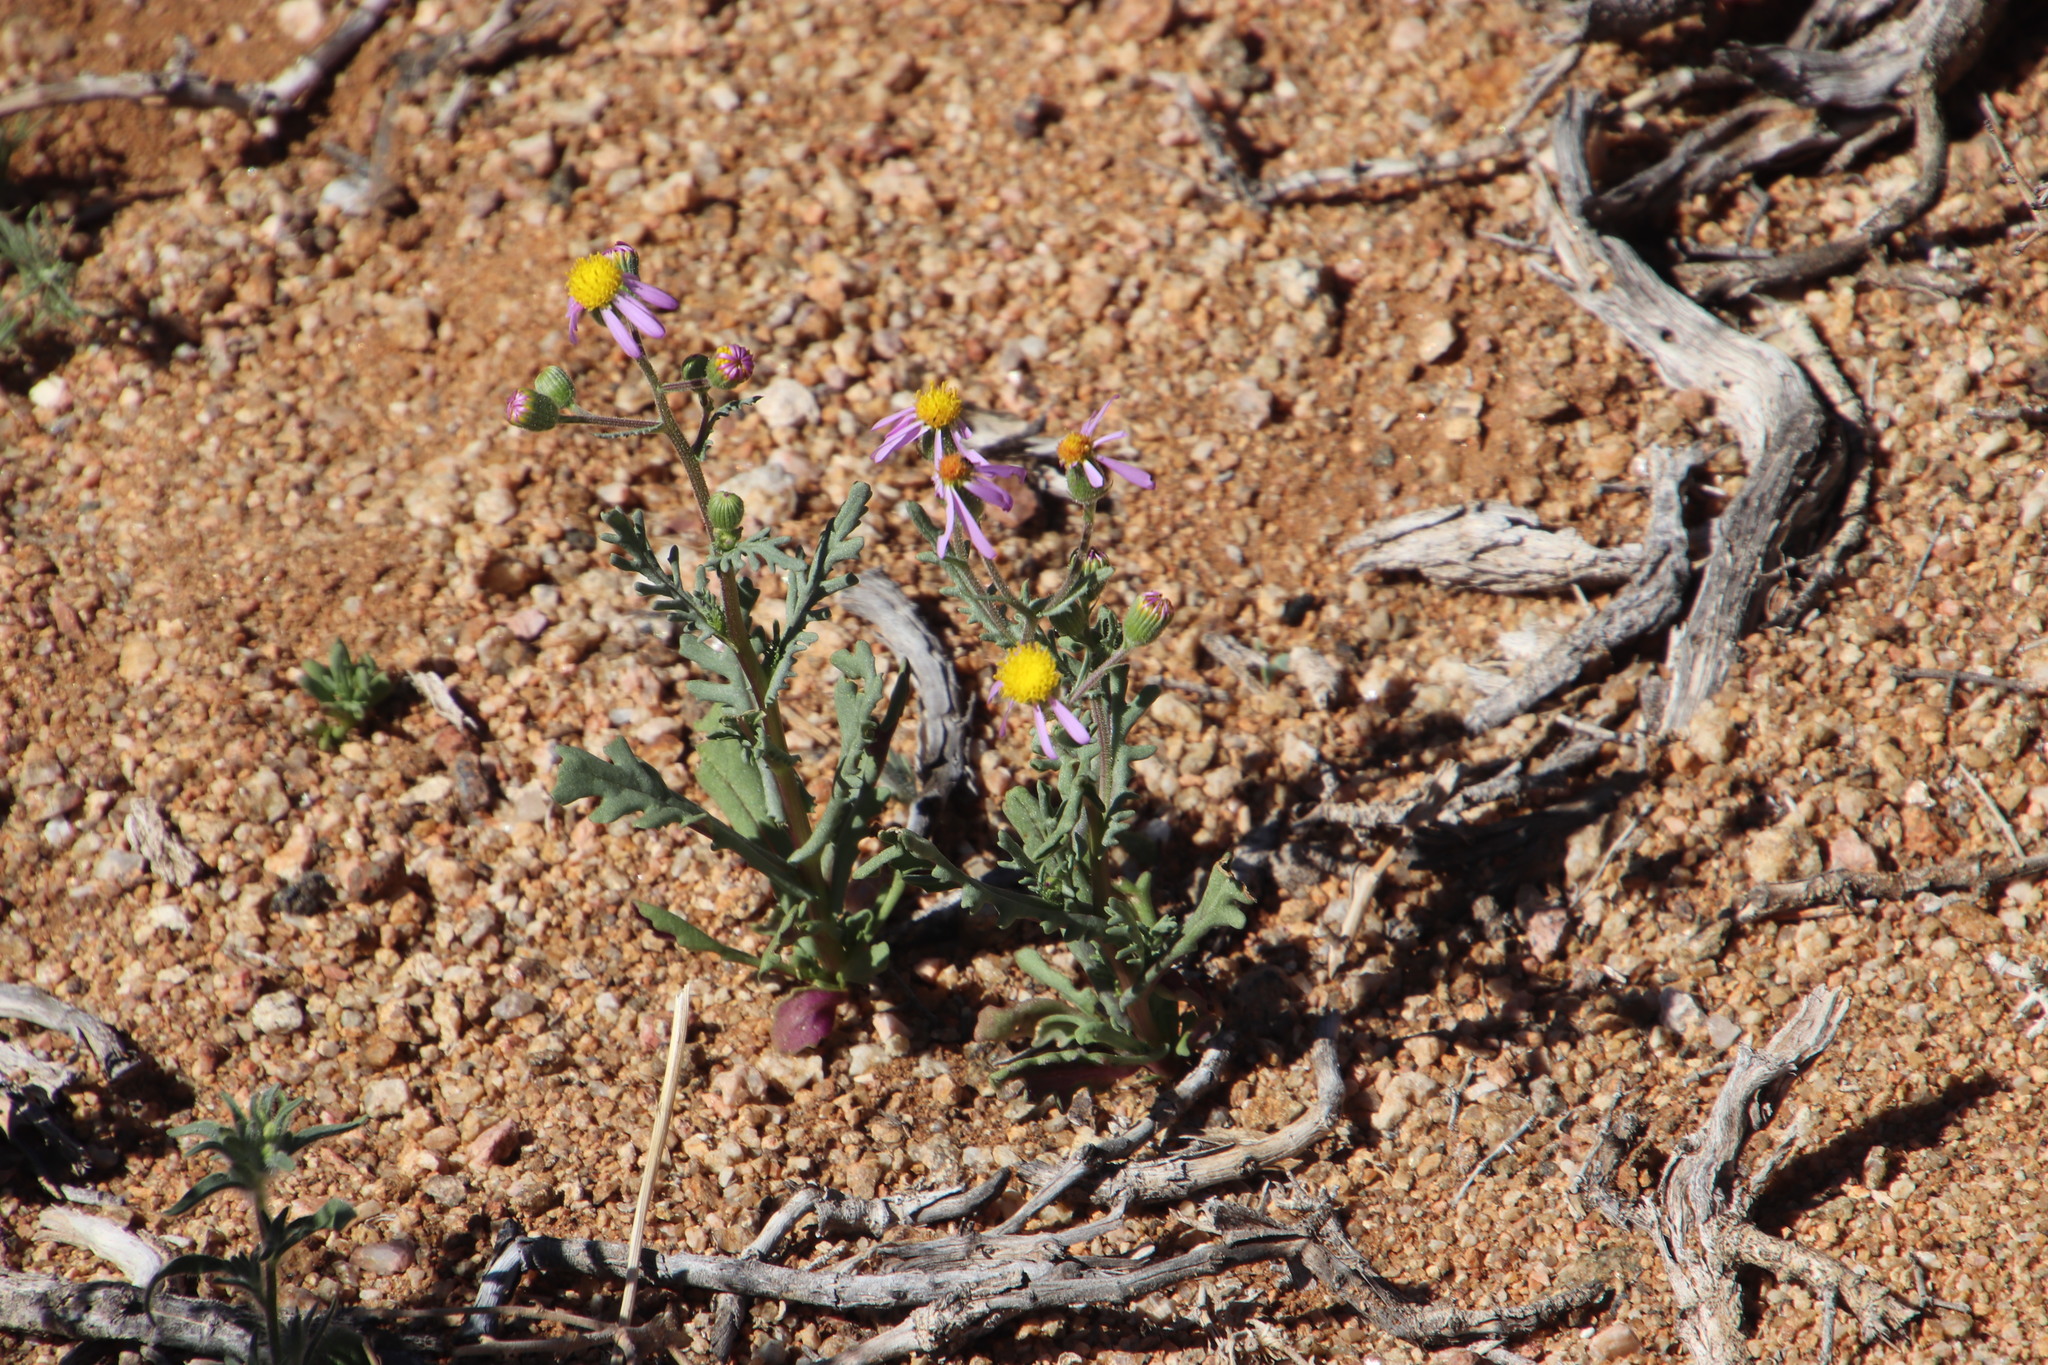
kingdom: Plantae
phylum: Tracheophyta
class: Magnoliopsida
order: Asterales
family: Asteraceae
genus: Senecio
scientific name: Senecio arenarius
